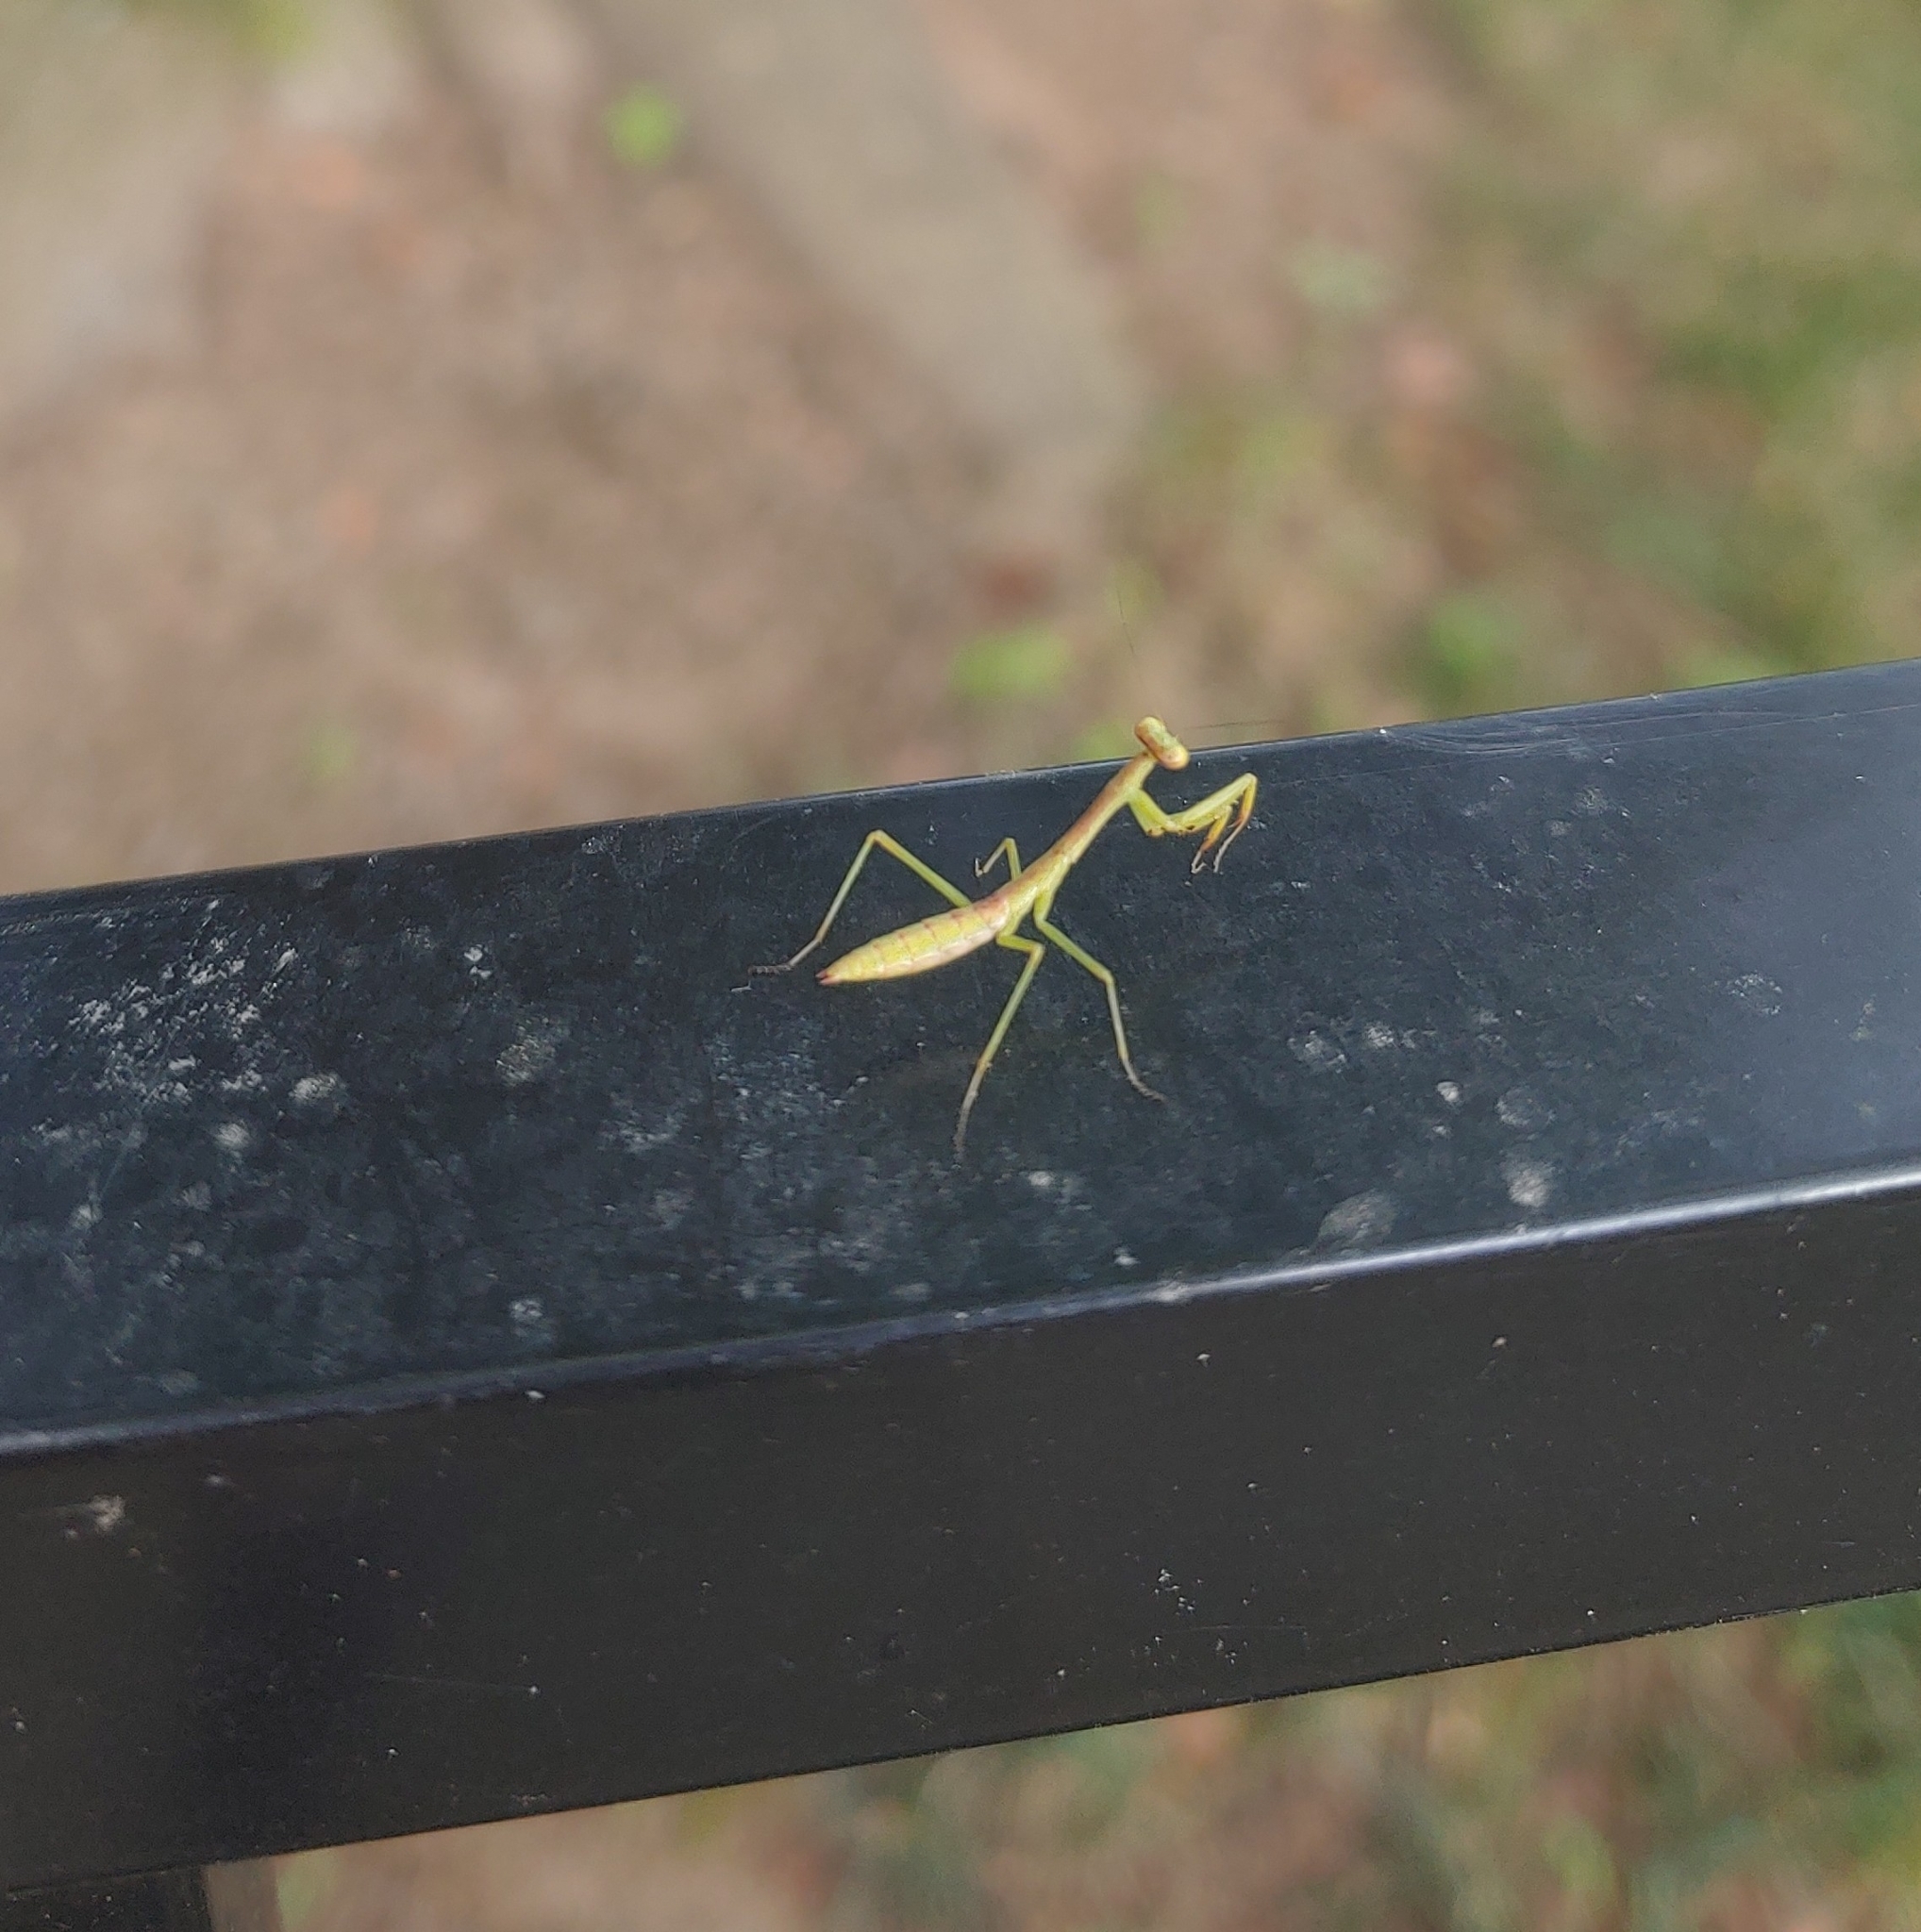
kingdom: Animalia
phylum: Arthropoda
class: Insecta
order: Mantodea
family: Mantidae
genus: Stagmomantis
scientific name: Stagmomantis carolina
